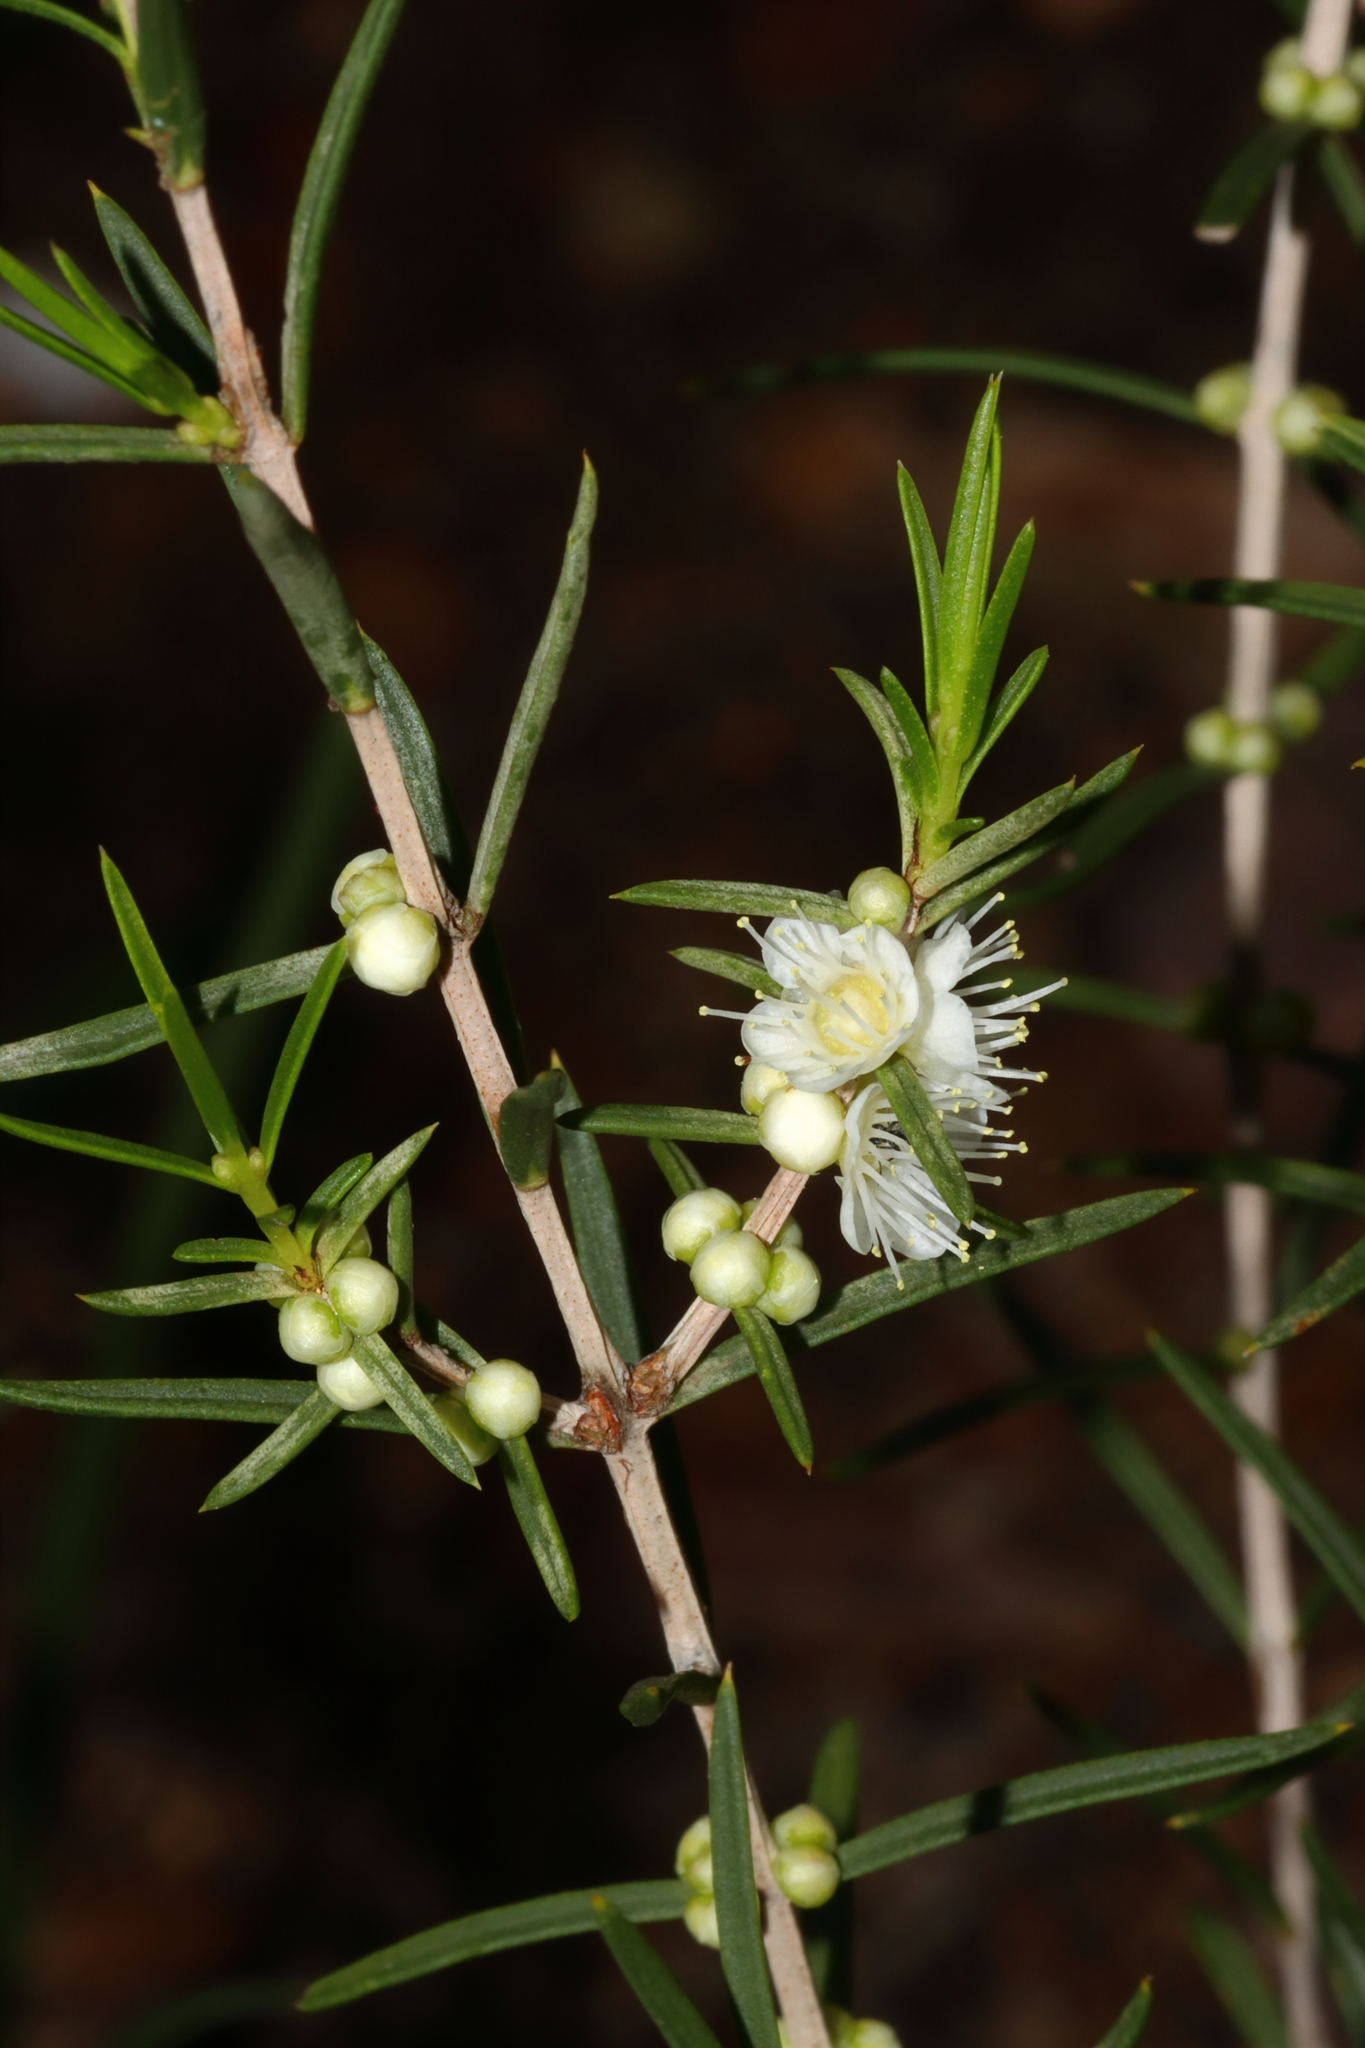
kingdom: Plantae
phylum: Tracheophyta
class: Magnoliopsida
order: Myrtales
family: Myrtaceae
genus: Hypocalymma
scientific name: Hypocalymma angustifolium
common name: White myrtle
